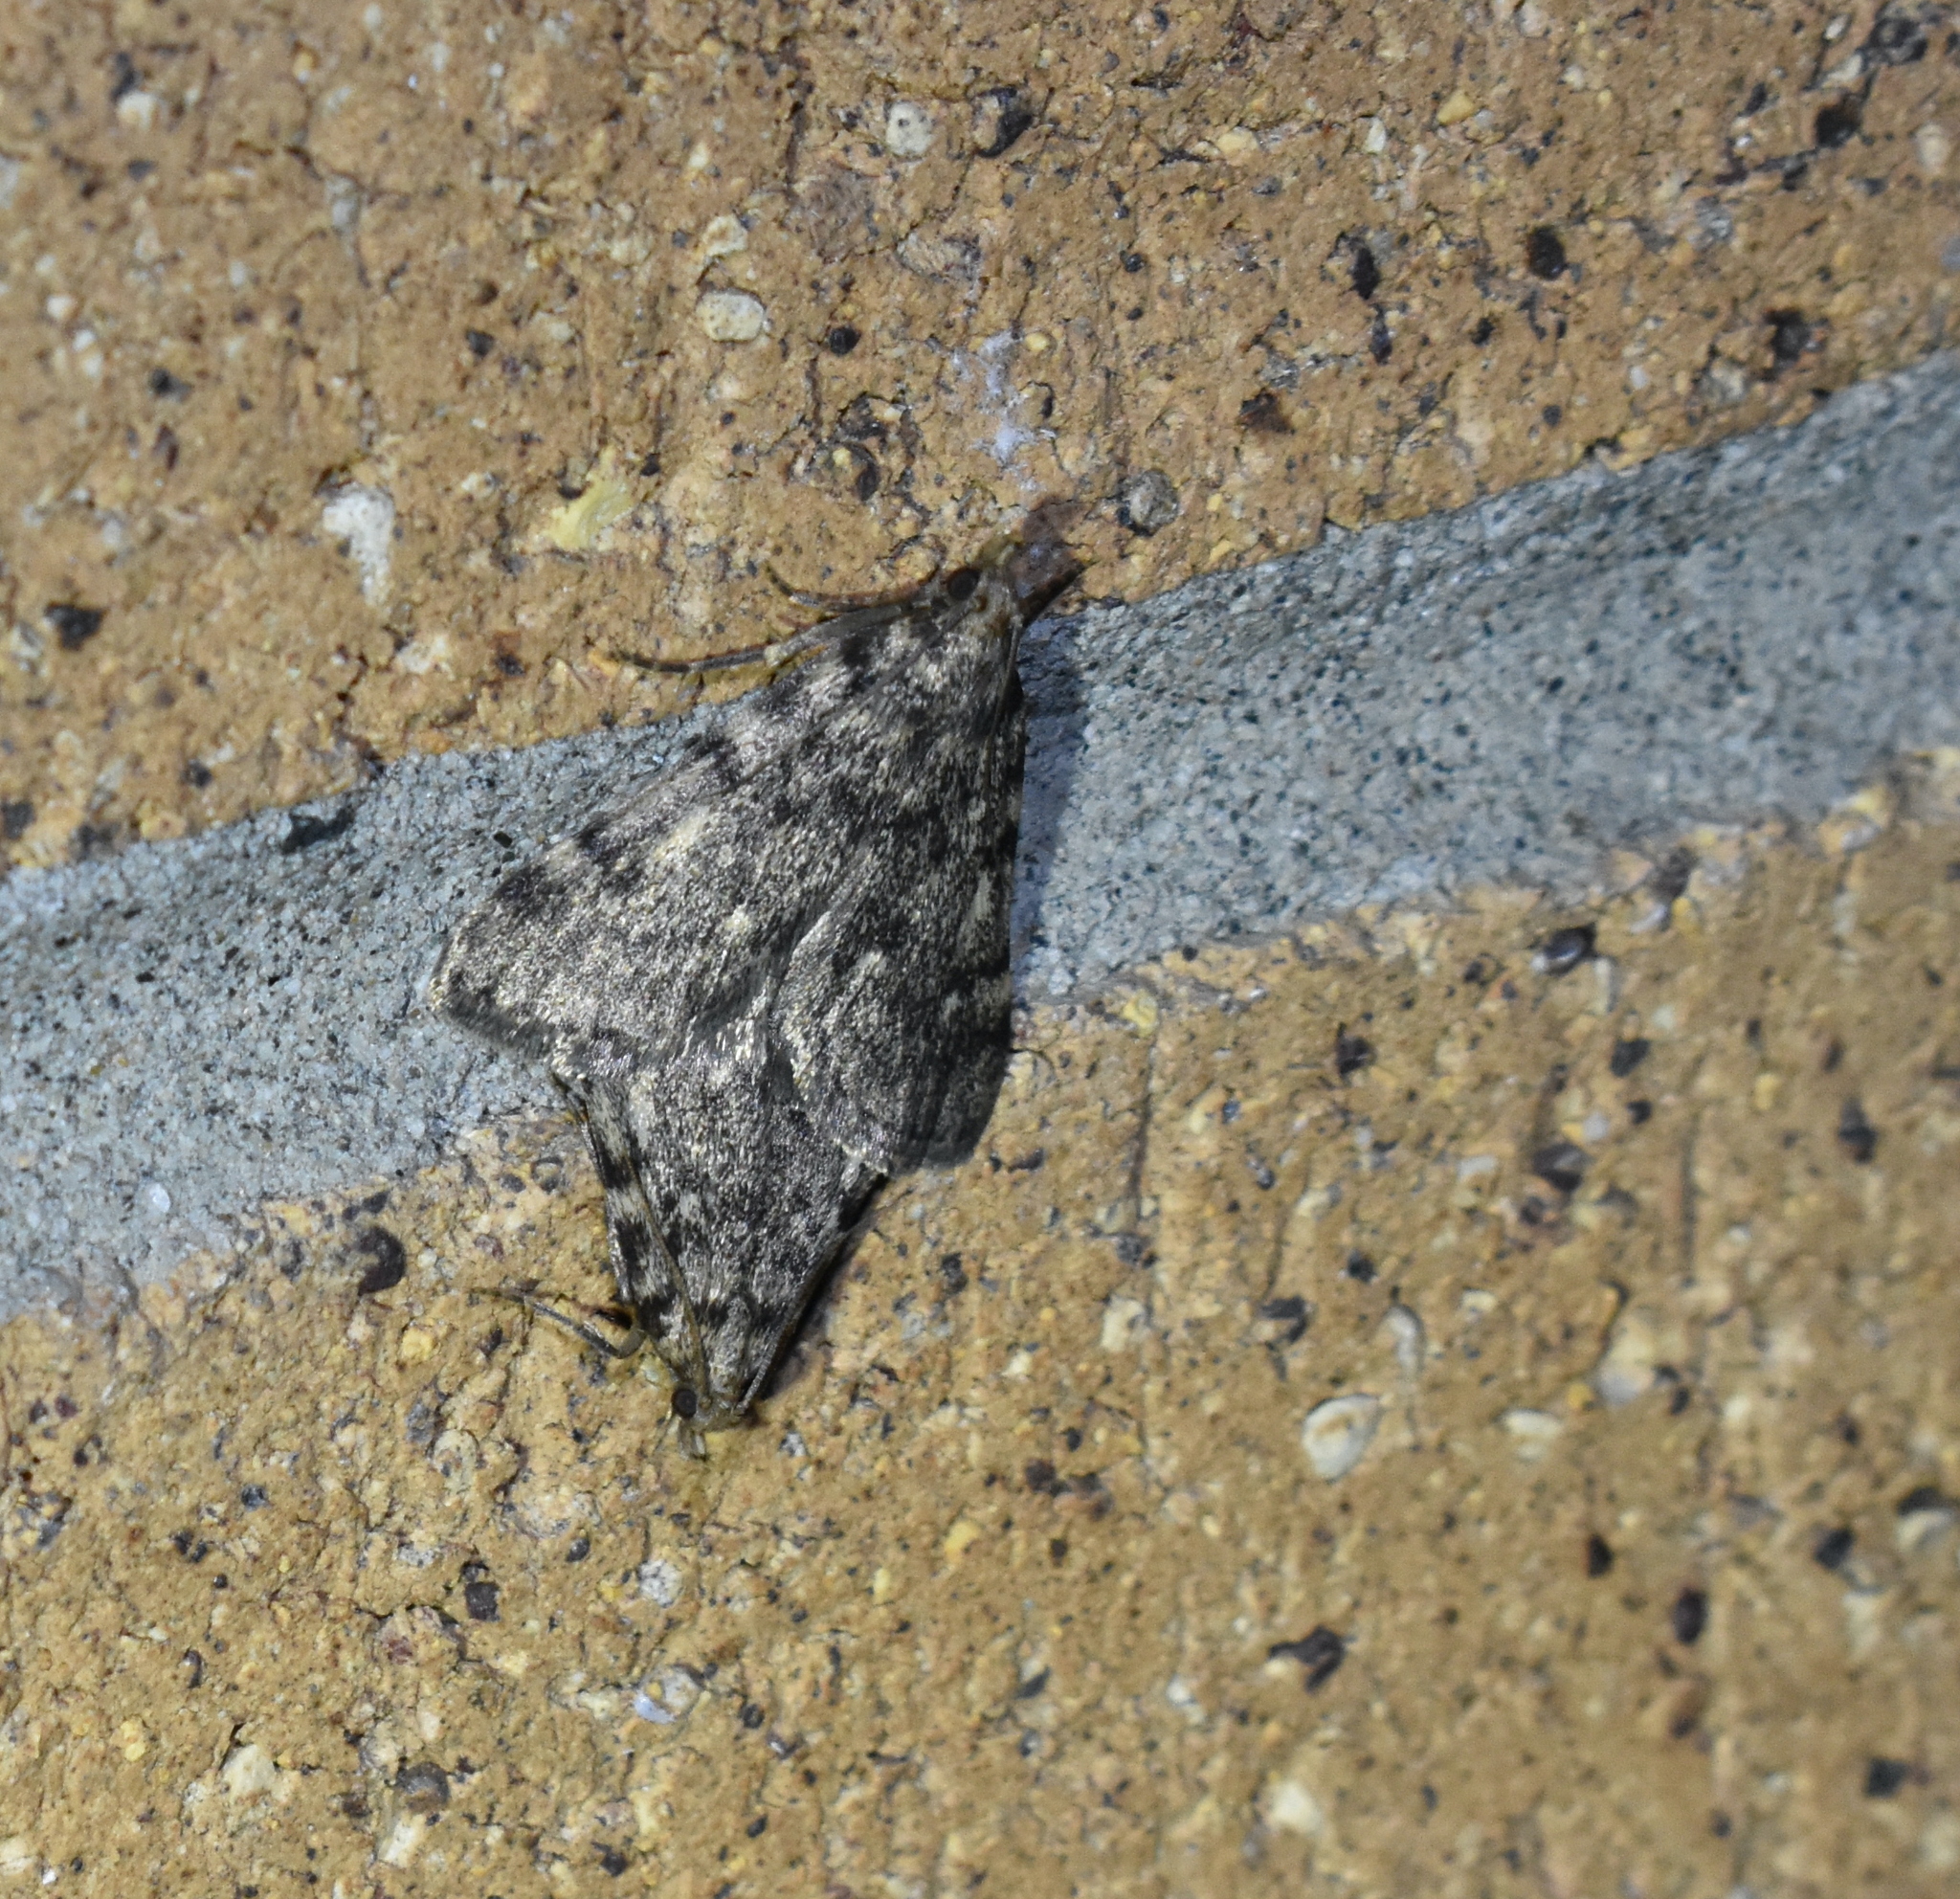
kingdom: Animalia
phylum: Arthropoda
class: Insecta
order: Lepidoptera
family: Pyralidae
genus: Aglossa
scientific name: Aglossa pinguinalis
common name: Large tabby
